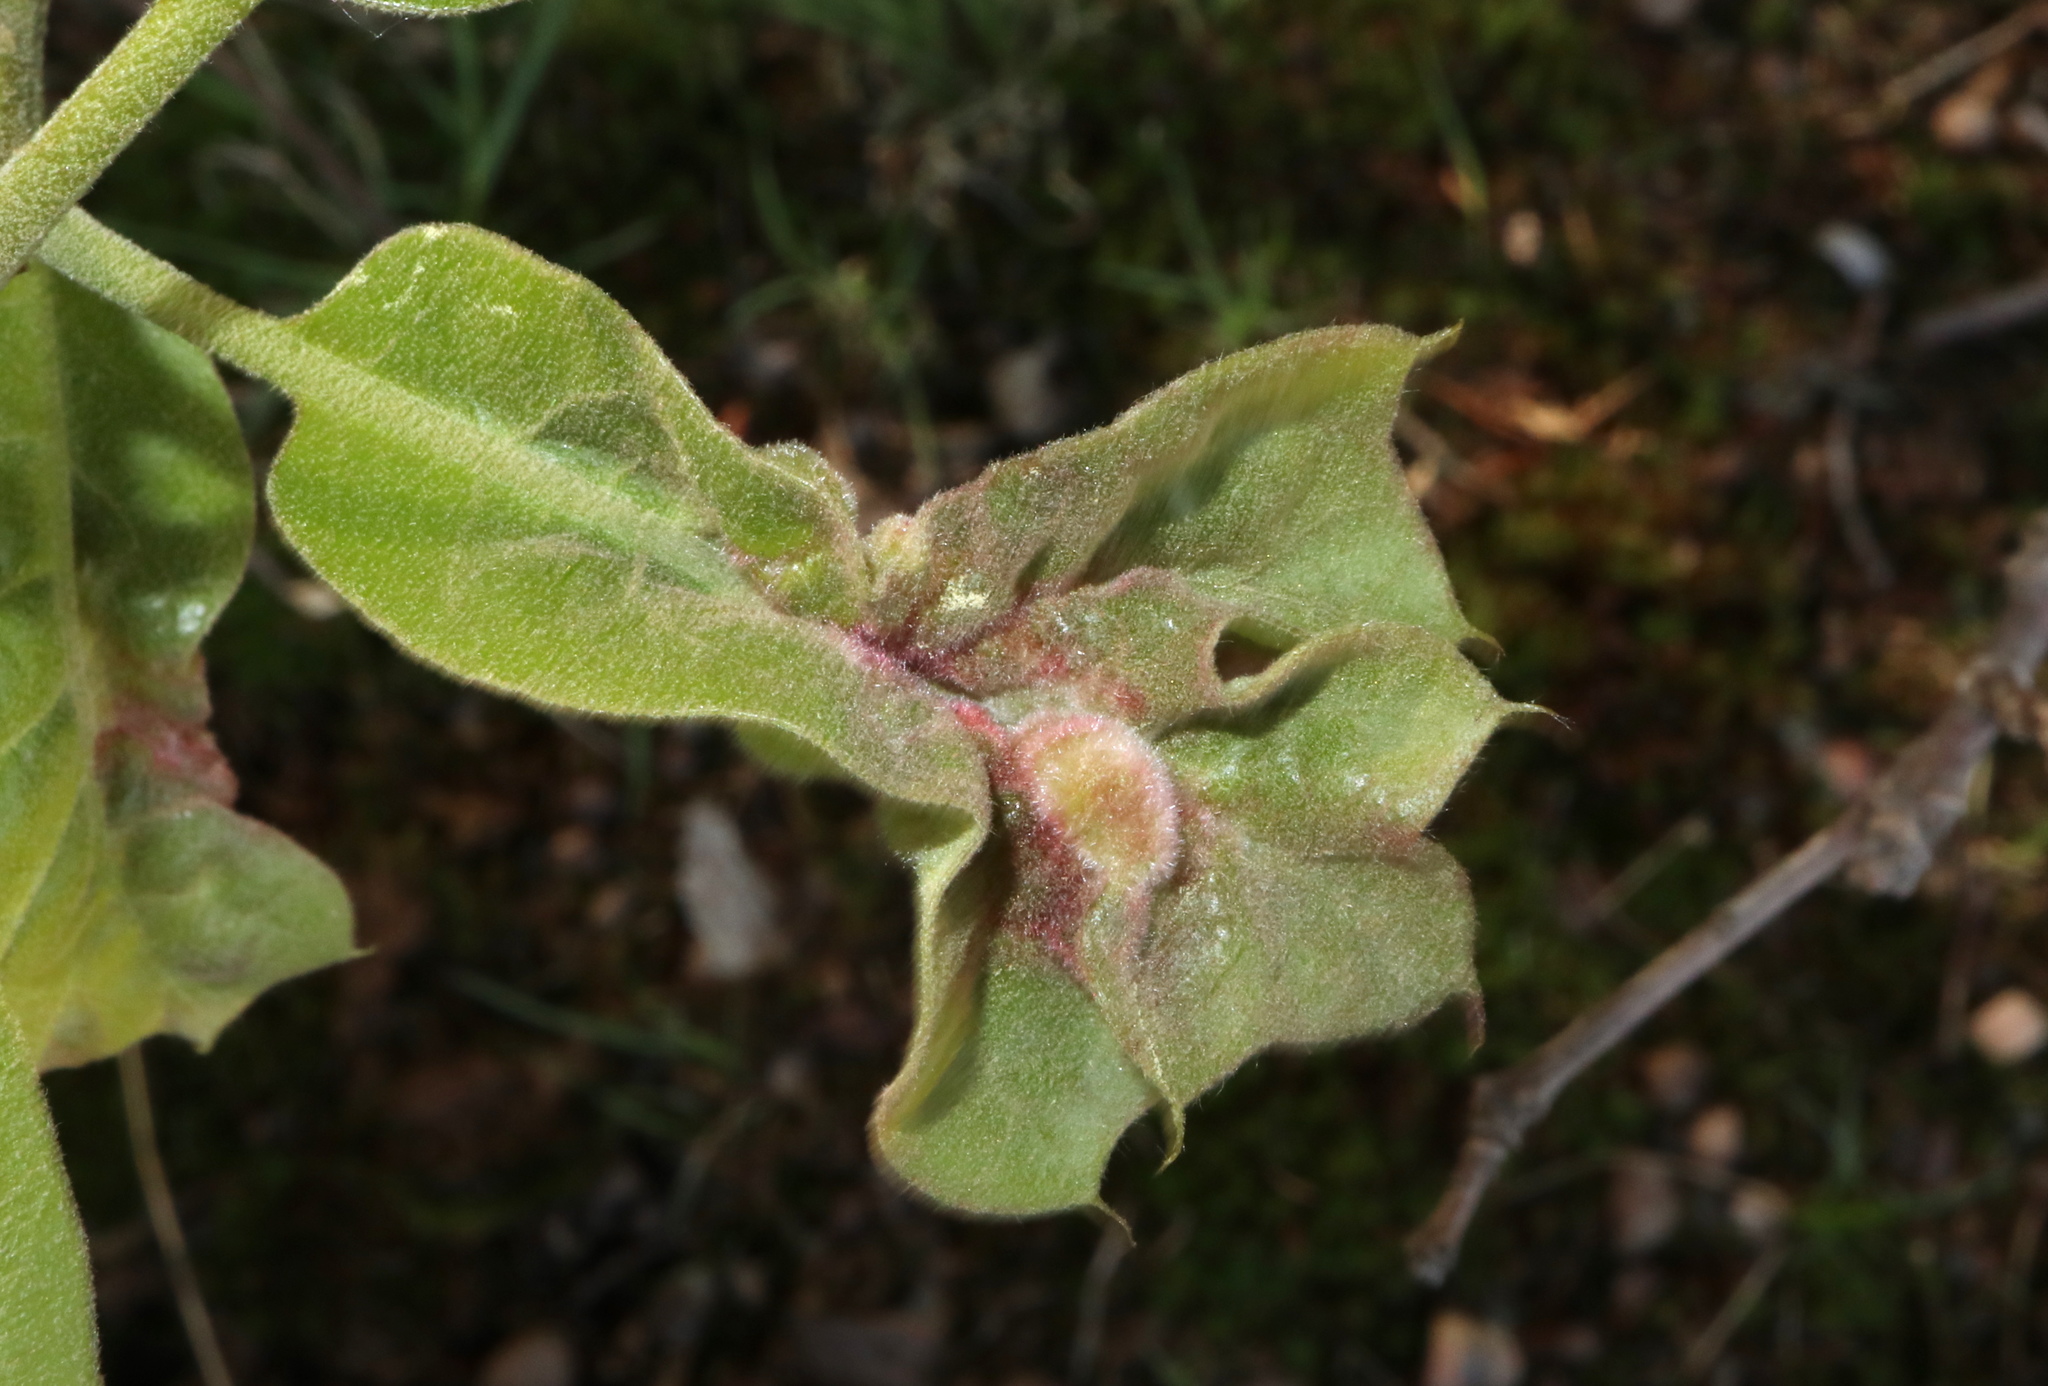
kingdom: Animalia
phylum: Arthropoda
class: Insecta
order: Diptera
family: Cecidomyiidae
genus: Macrodiplosis
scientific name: Macrodiplosis niveipila
